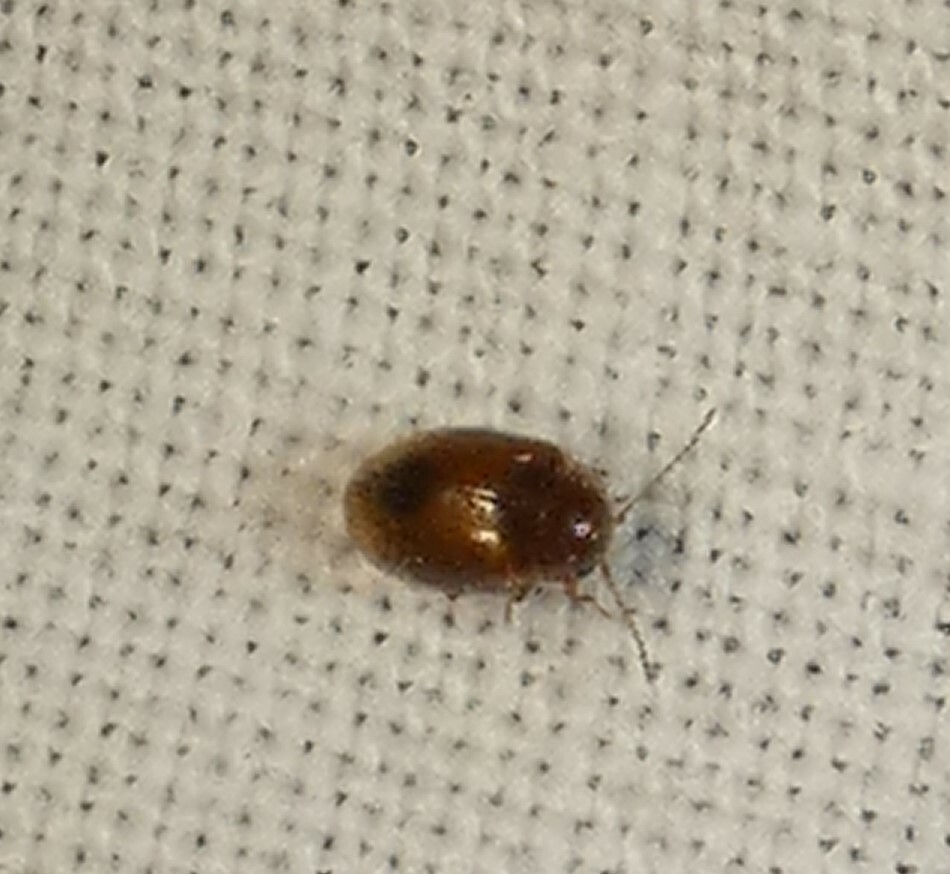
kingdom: Animalia
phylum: Arthropoda
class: Insecta
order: Coleoptera
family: Scirtidae
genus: Contacyphon
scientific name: Contacyphon
